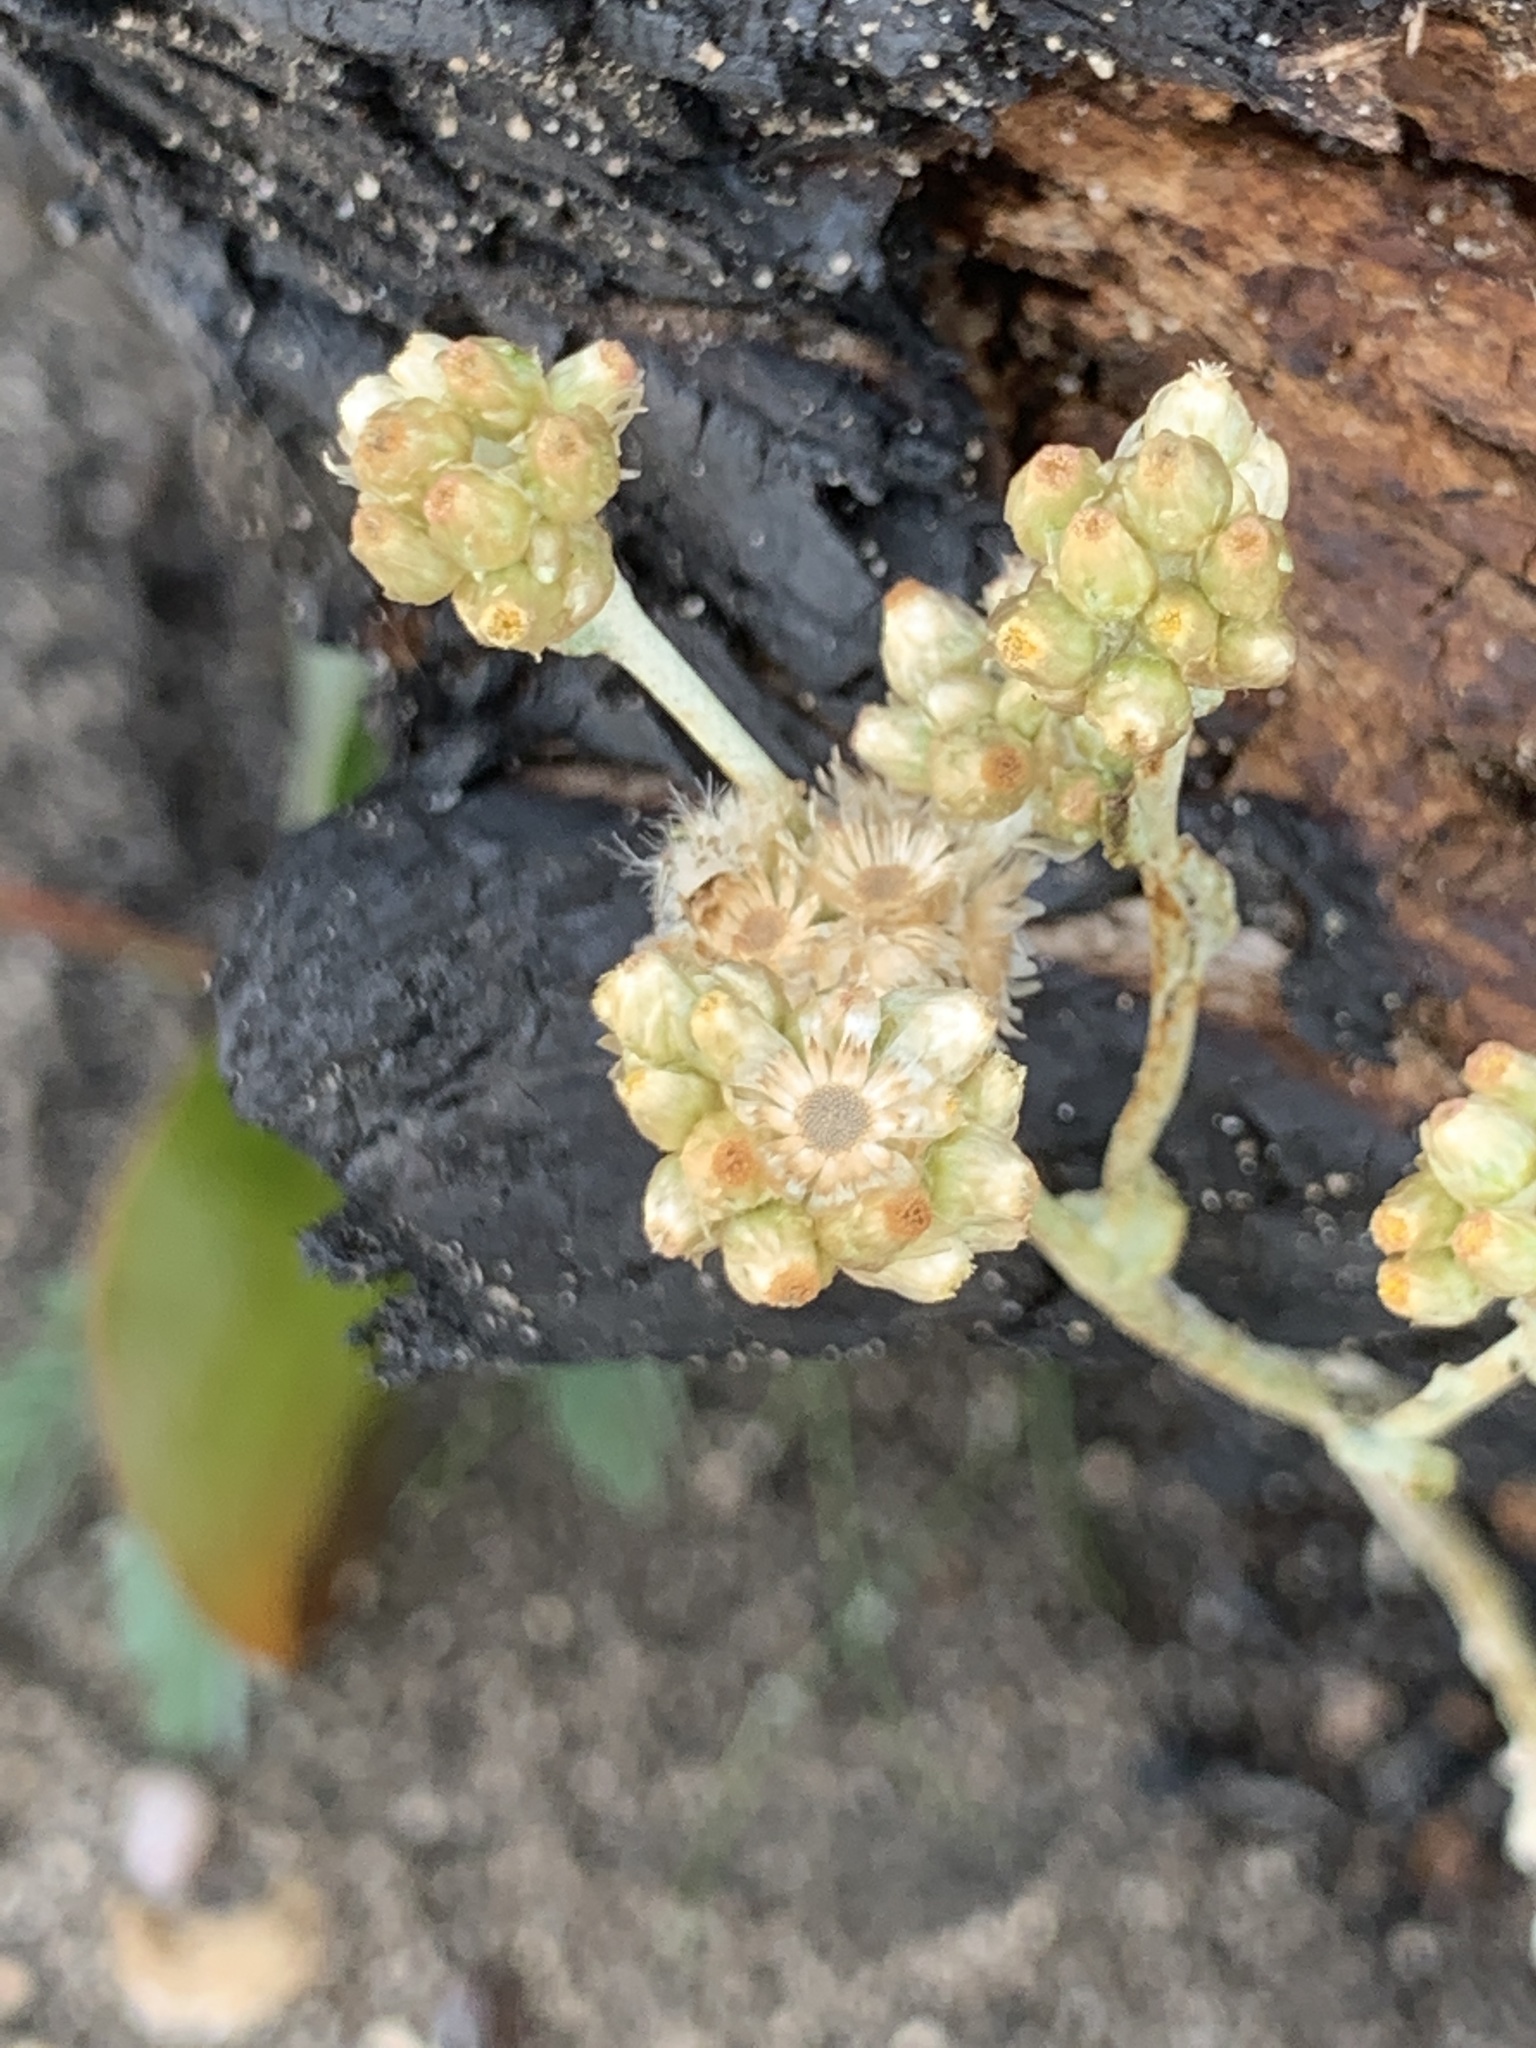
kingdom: Plantae
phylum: Tracheophyta
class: Magnoliopsida
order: Asterales
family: Asteraceae
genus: Helichrysum
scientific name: Helichrysum luteoalbum
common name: Daisy
